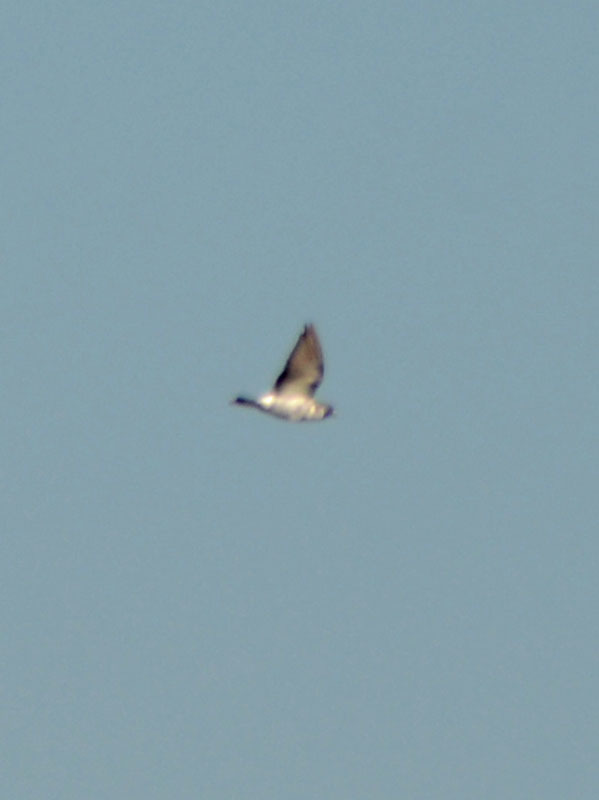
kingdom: Animalia
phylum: Chordata
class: Aves
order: Columbiformes
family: Columbidae
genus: Columba
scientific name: Columba livia
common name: Rock pigeon
